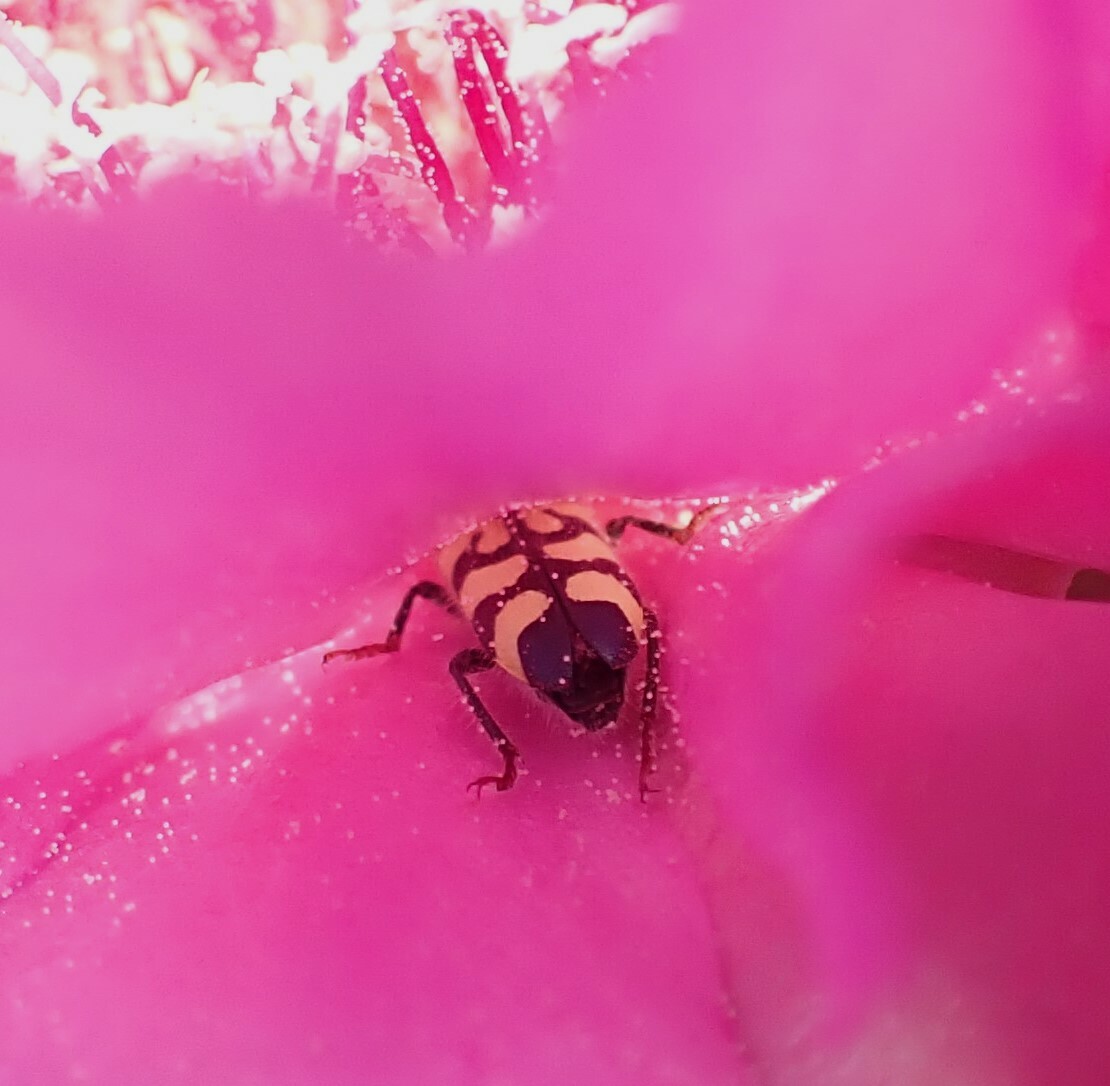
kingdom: Animalia
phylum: Arthropoda
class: Insecta
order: Coleoptera
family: Cleridae
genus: Trichodes
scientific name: Trichodes ornatus
